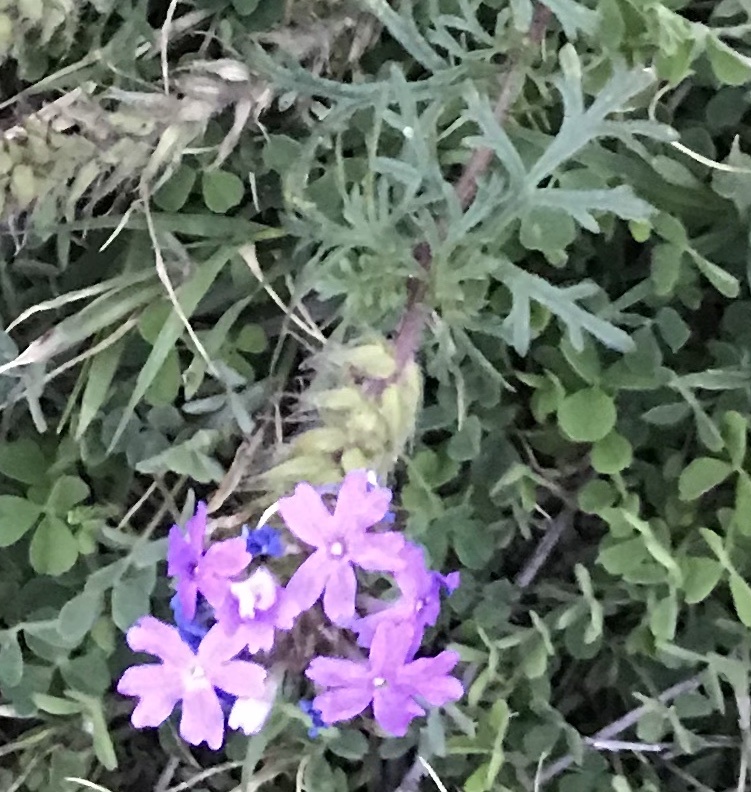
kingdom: Plantae
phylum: Tracheophyta
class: Magnoliopsida
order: Lamiales
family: Verbenaceae
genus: Verbena
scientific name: Verbena bipinnatifida
